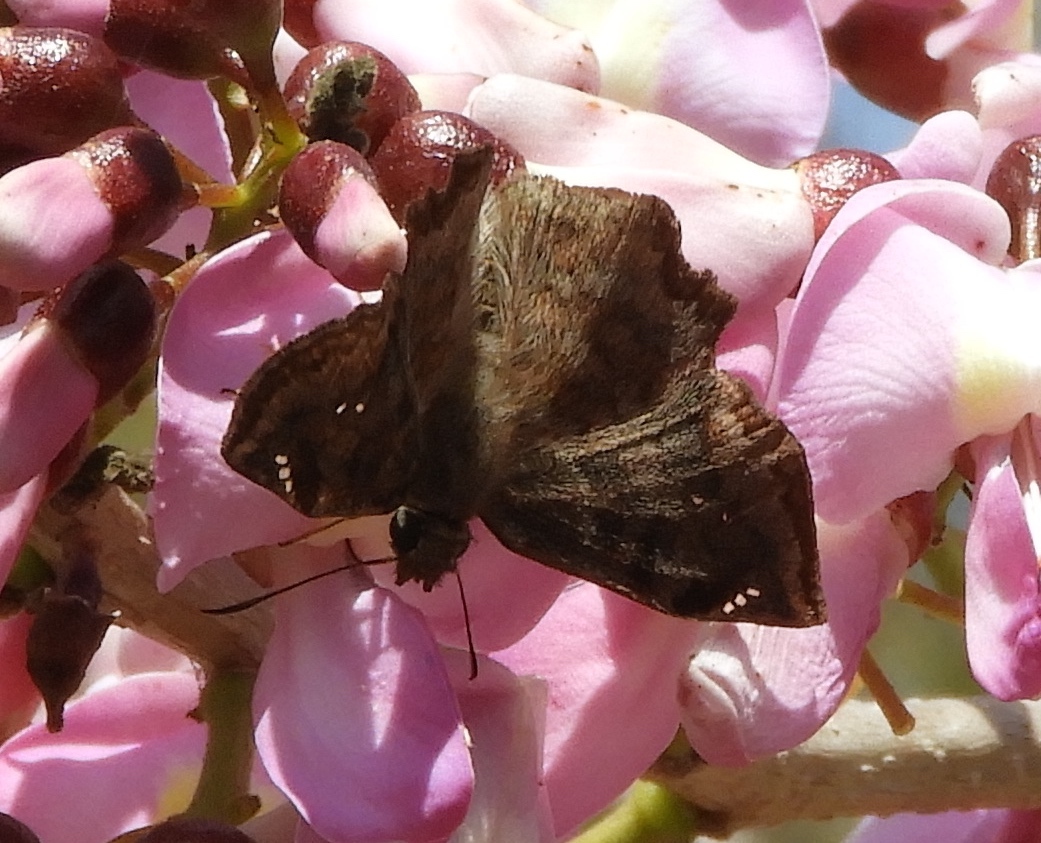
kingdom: Animalia
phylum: Arthropoda
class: Insecta
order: Lepidoptera
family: Hesperiidae
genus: Antigonus
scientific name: Antigonus erosus
